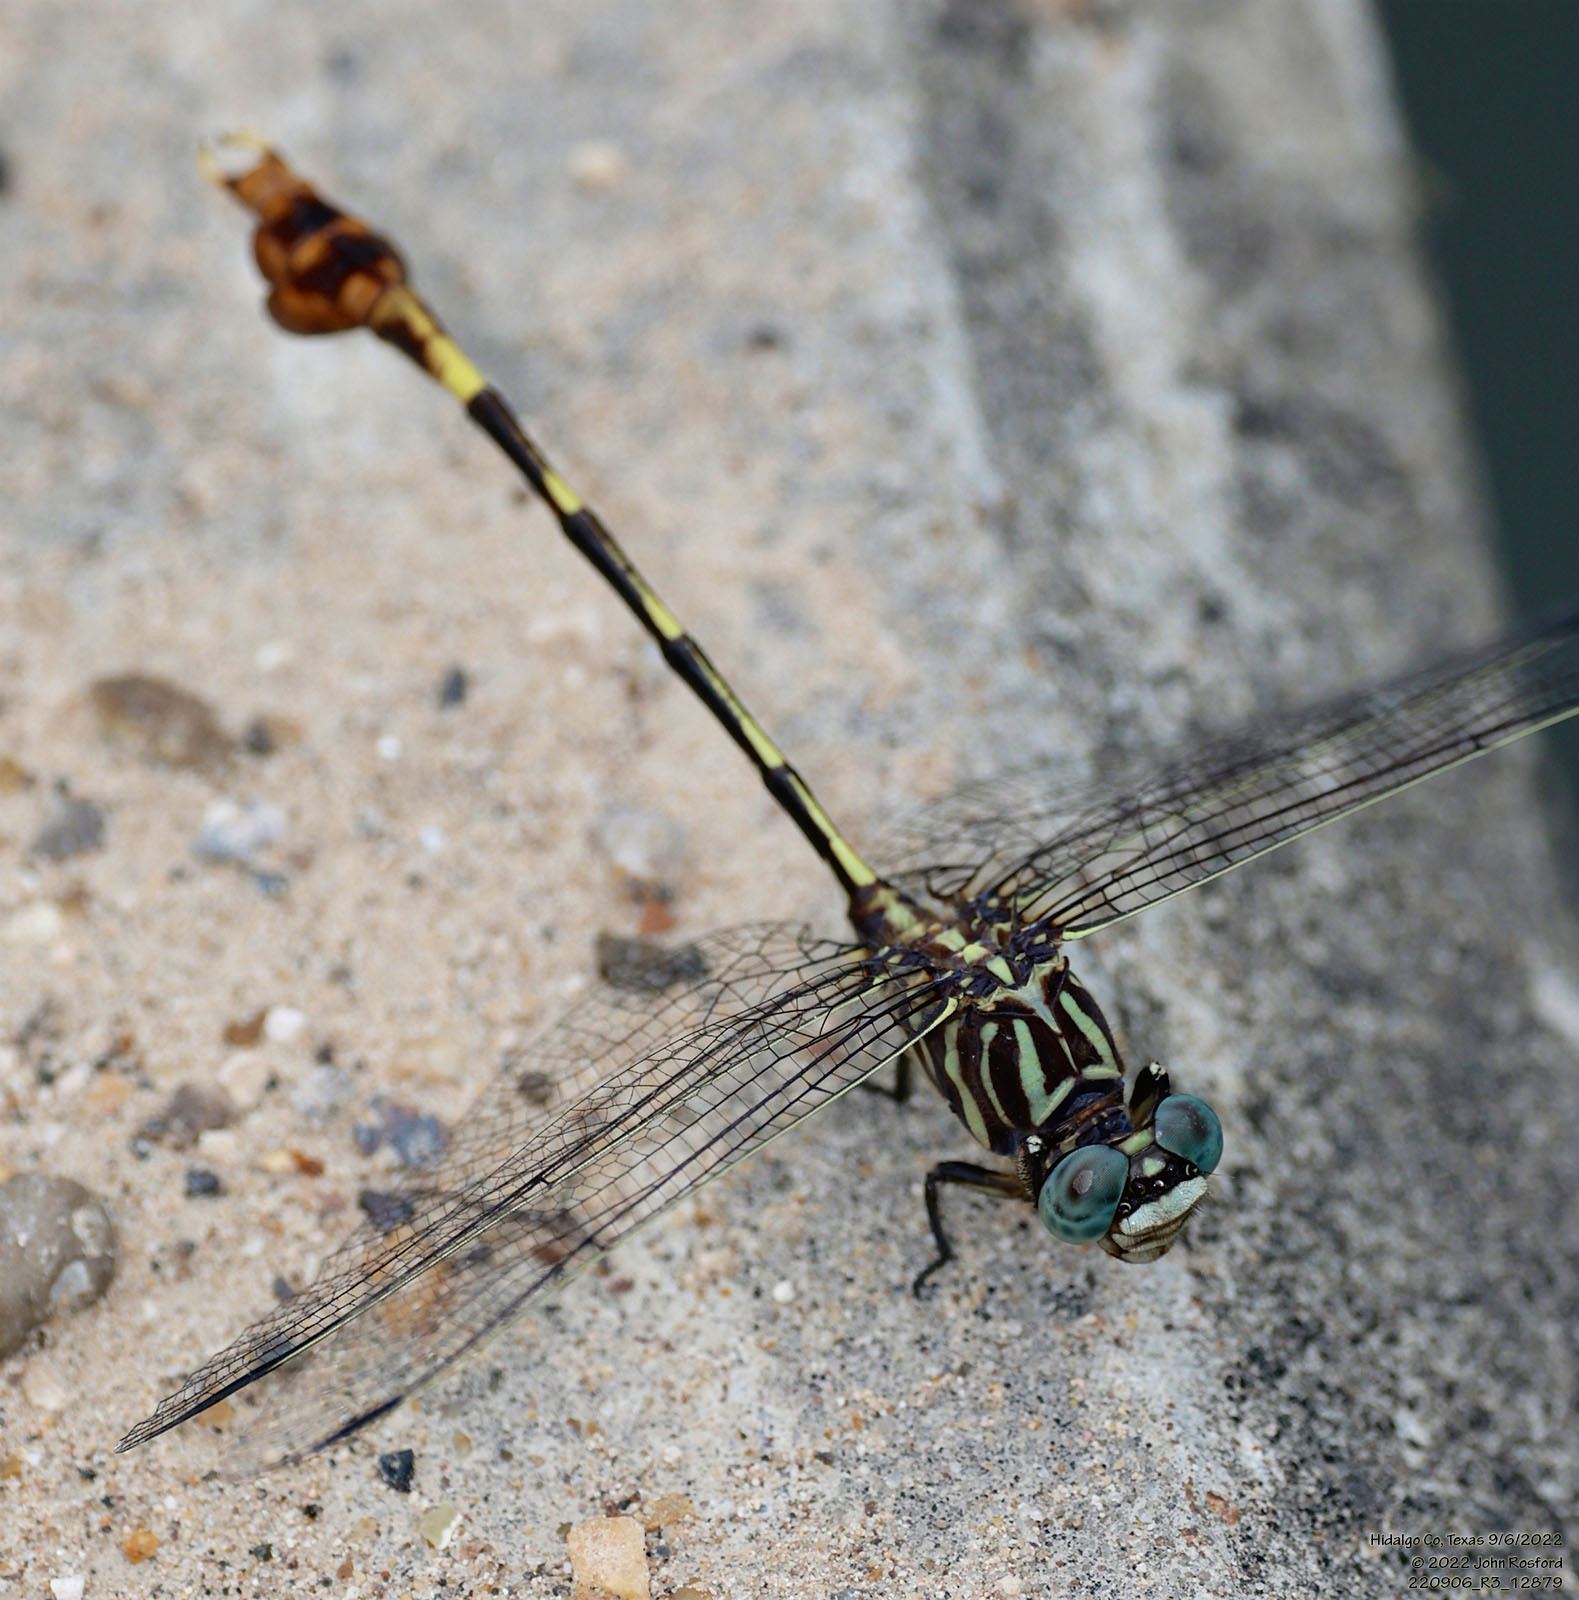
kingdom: Animalia
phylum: Arthropoda
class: Insecta
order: Odonata
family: Gomphidae
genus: Phyllogomphoides
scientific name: Phyllogomphoides albrighti
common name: Five-striped leaftail
